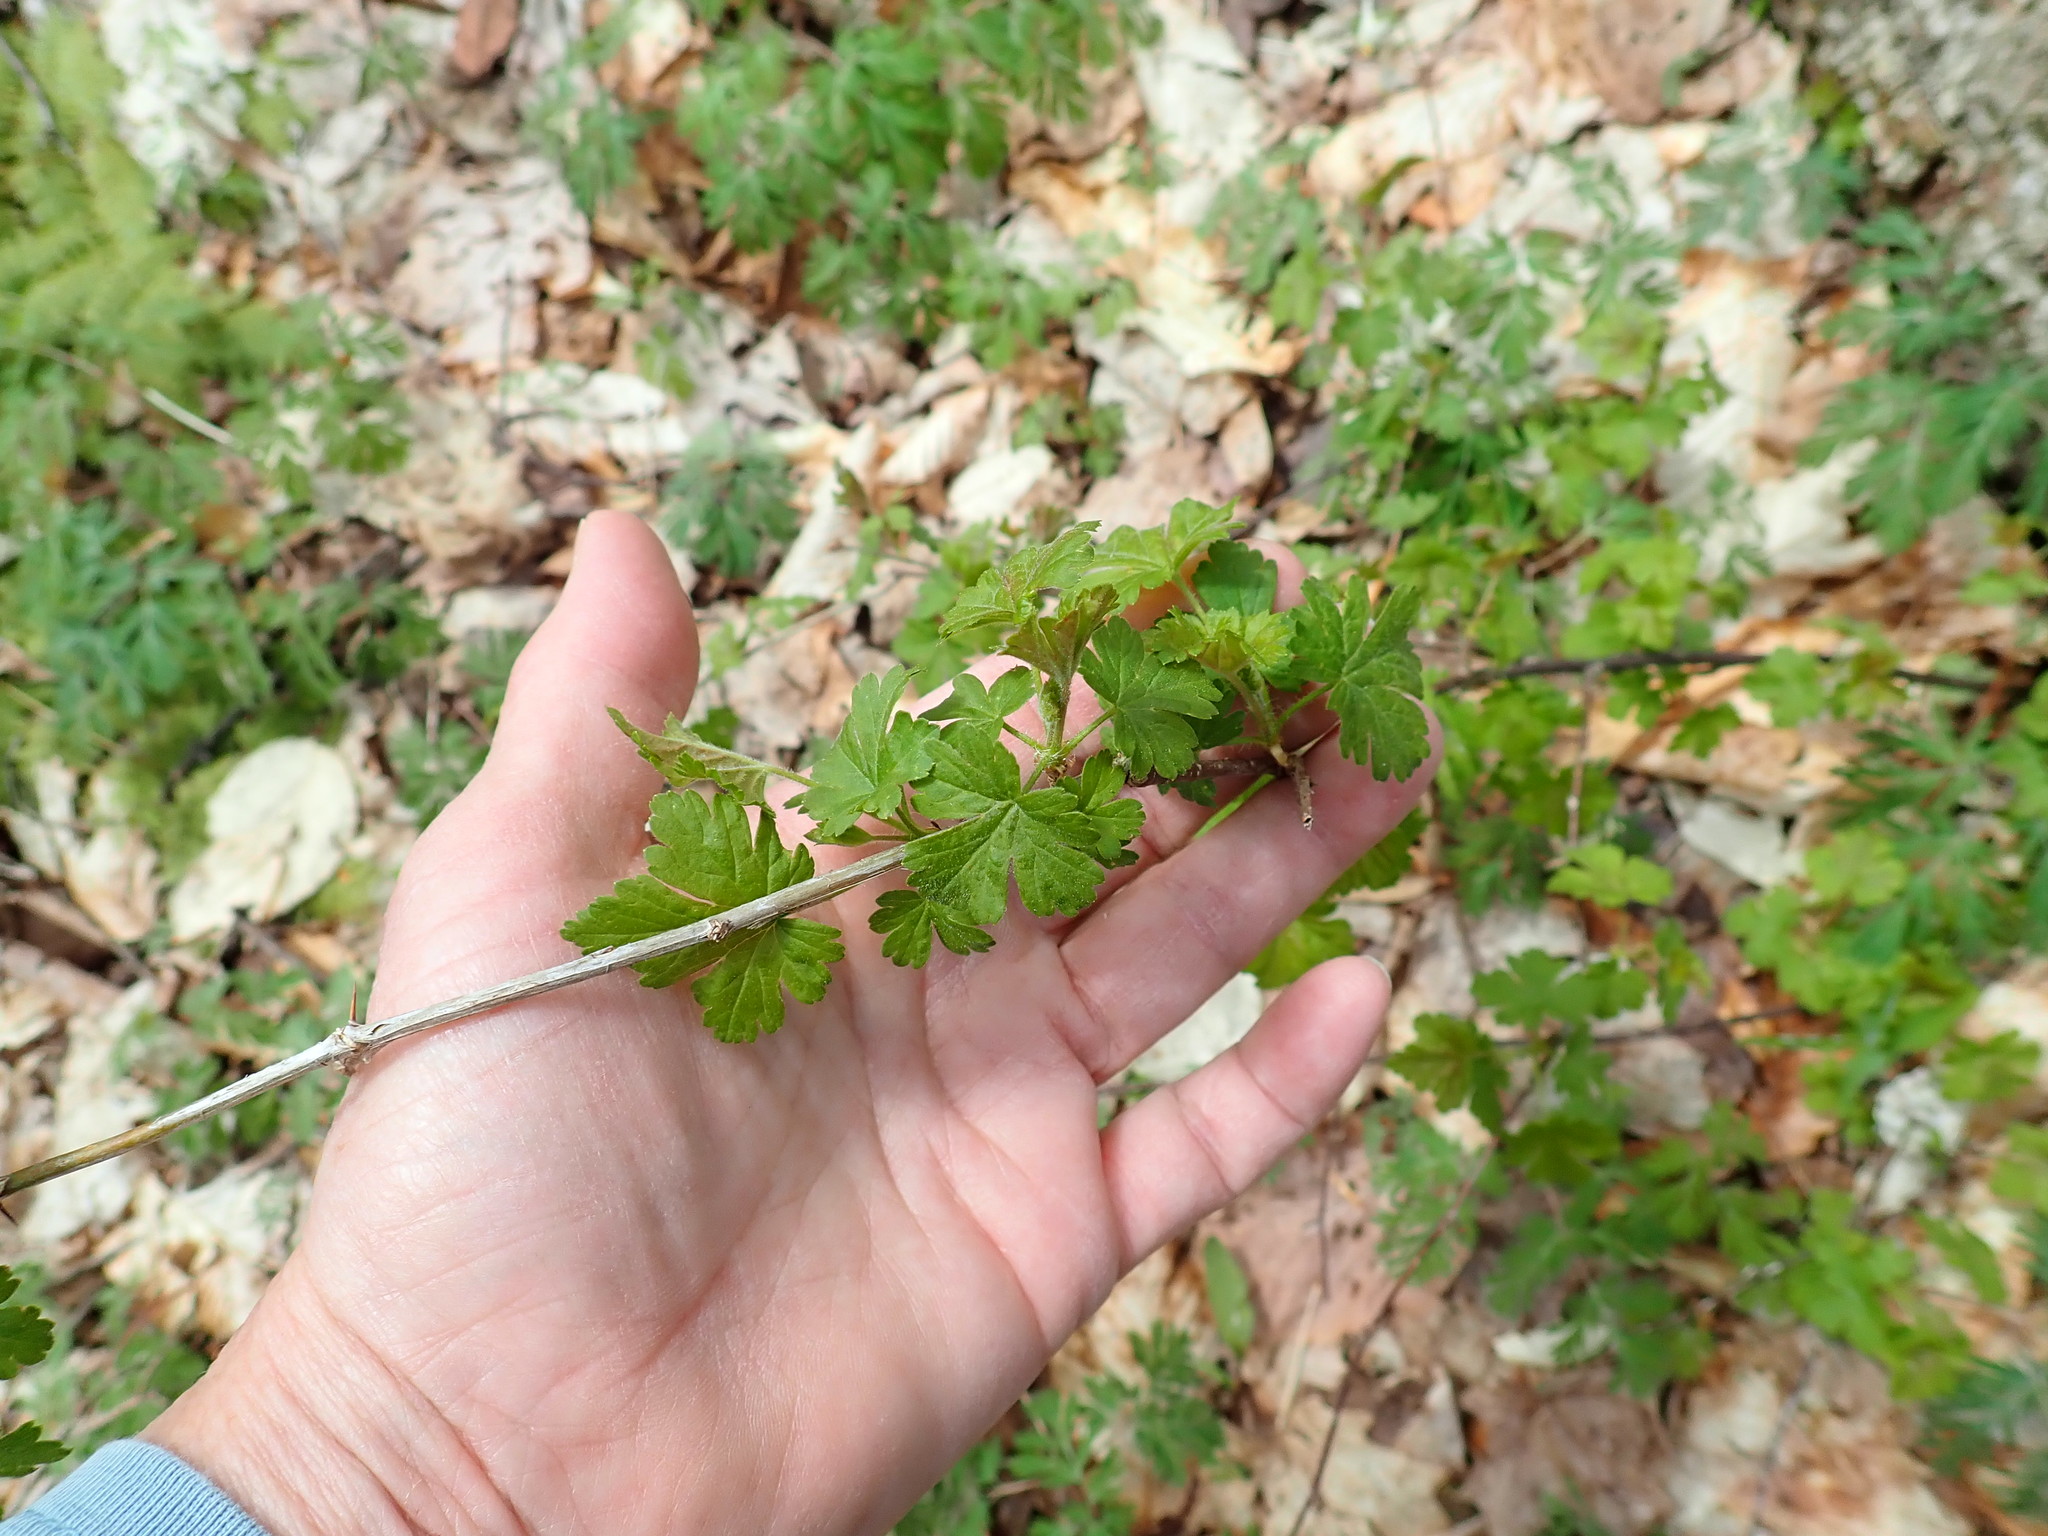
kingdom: Plantae
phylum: Tracheophyta
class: Magnoliopsida
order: Saxifragales
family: Grossulariaceae
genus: Ribes
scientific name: Ribes
